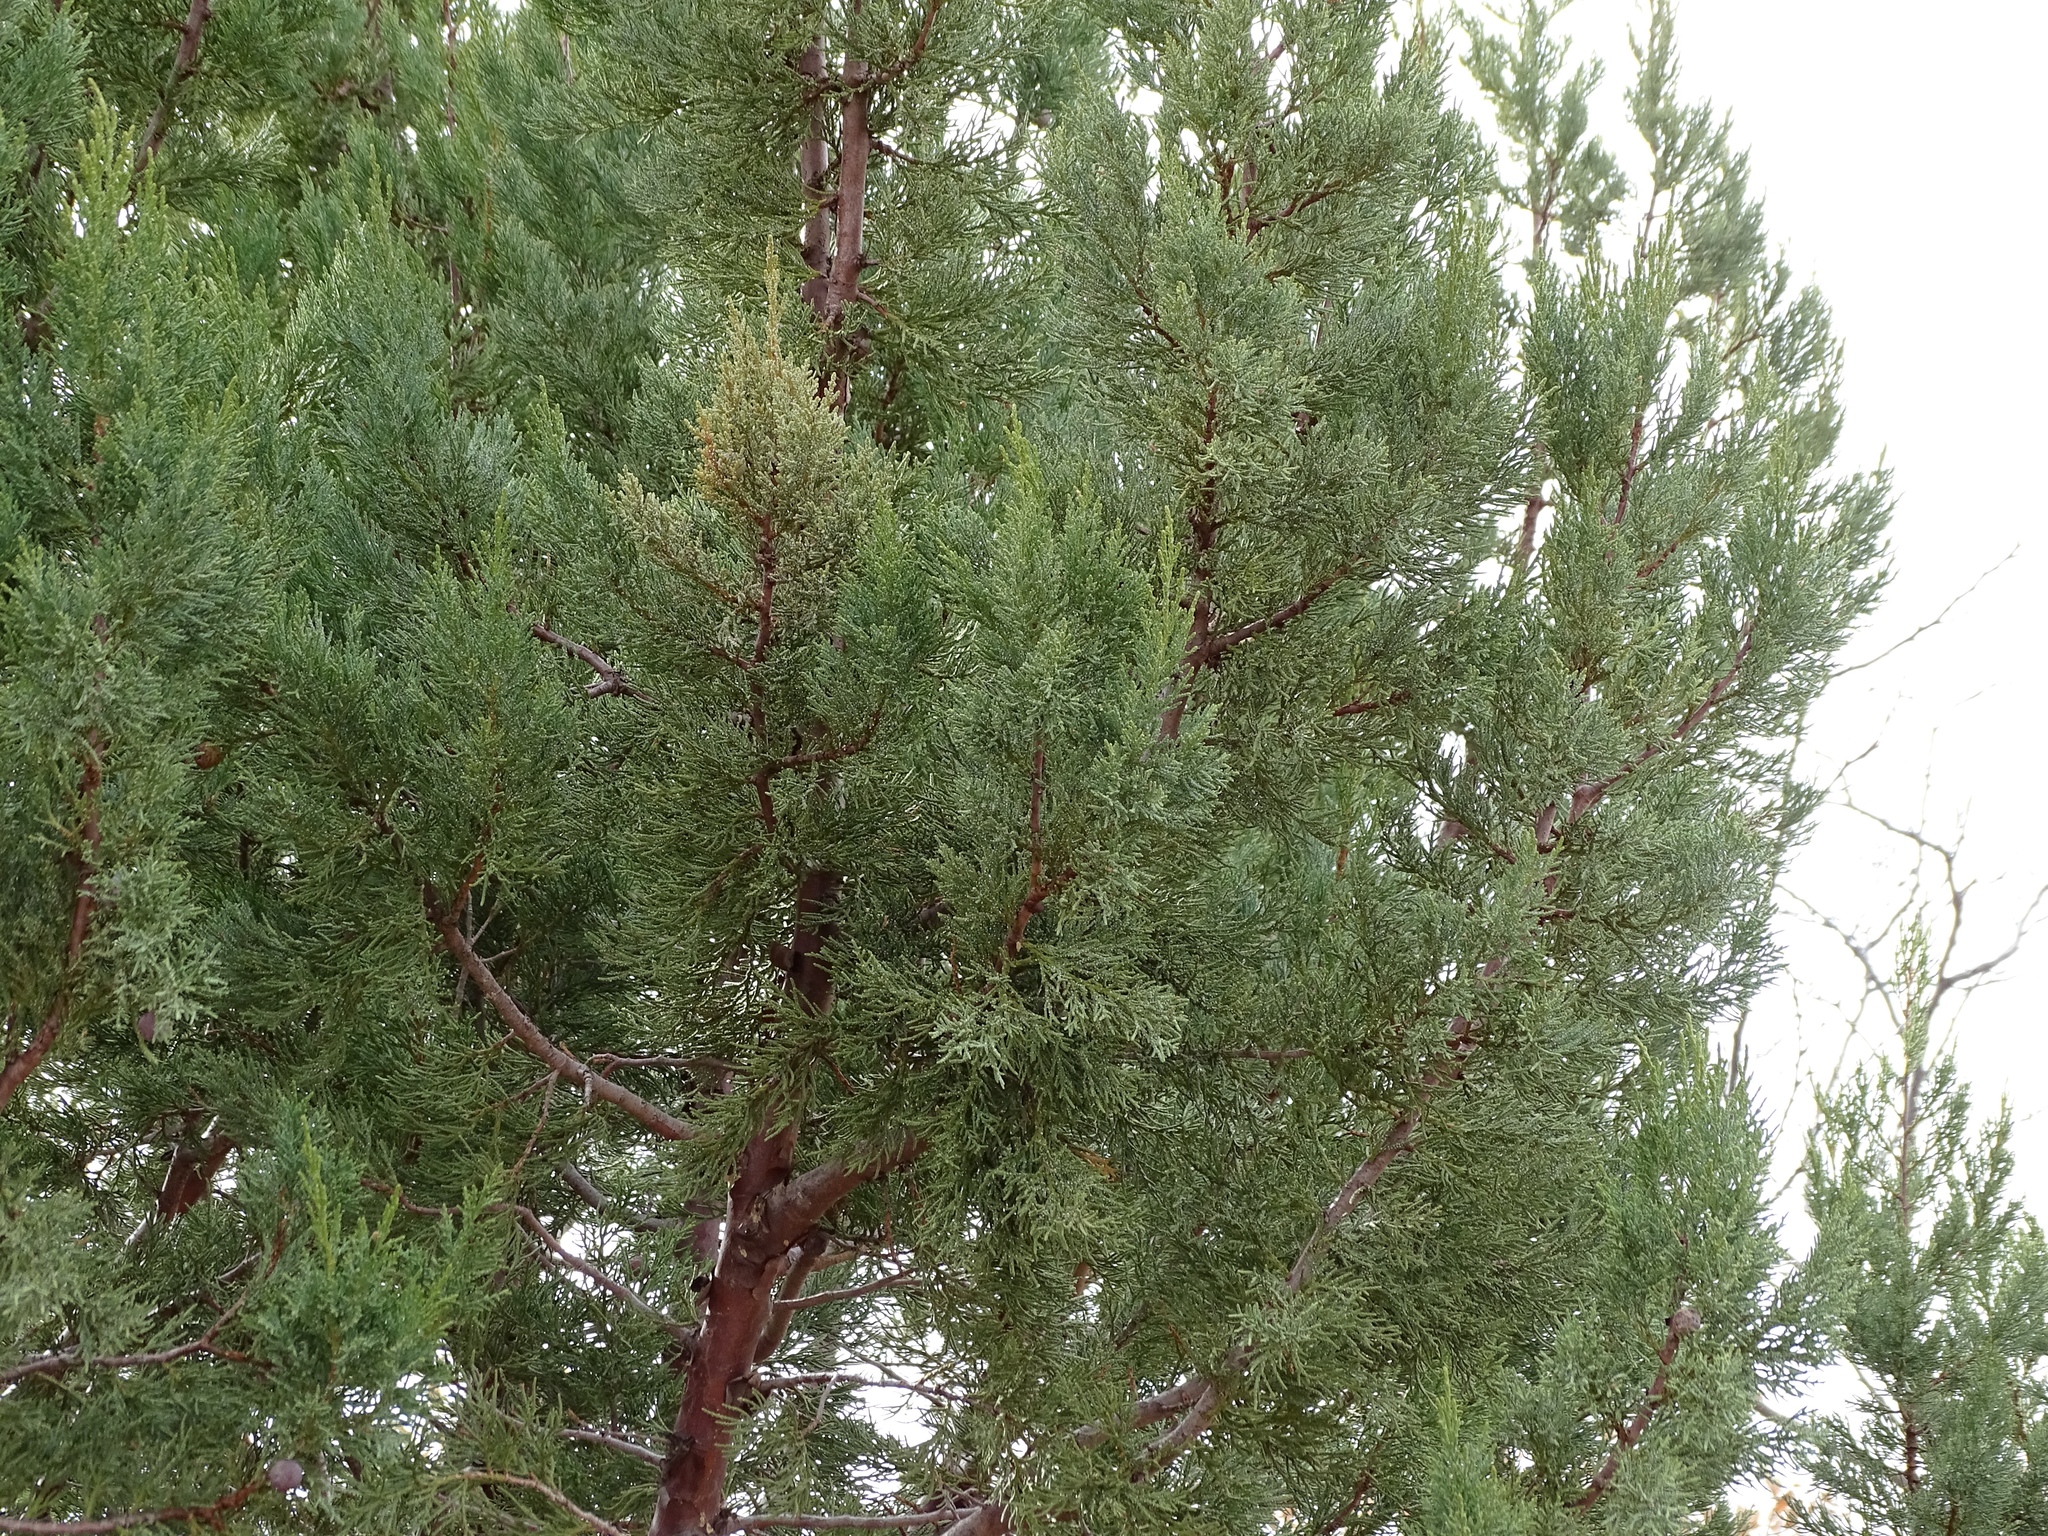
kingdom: Plantae
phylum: Tracheophyta
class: Pinopsida
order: Pinales
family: Cupressaceae
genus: Juniperus
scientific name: Juniperus deppeana
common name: Alligator juniper
